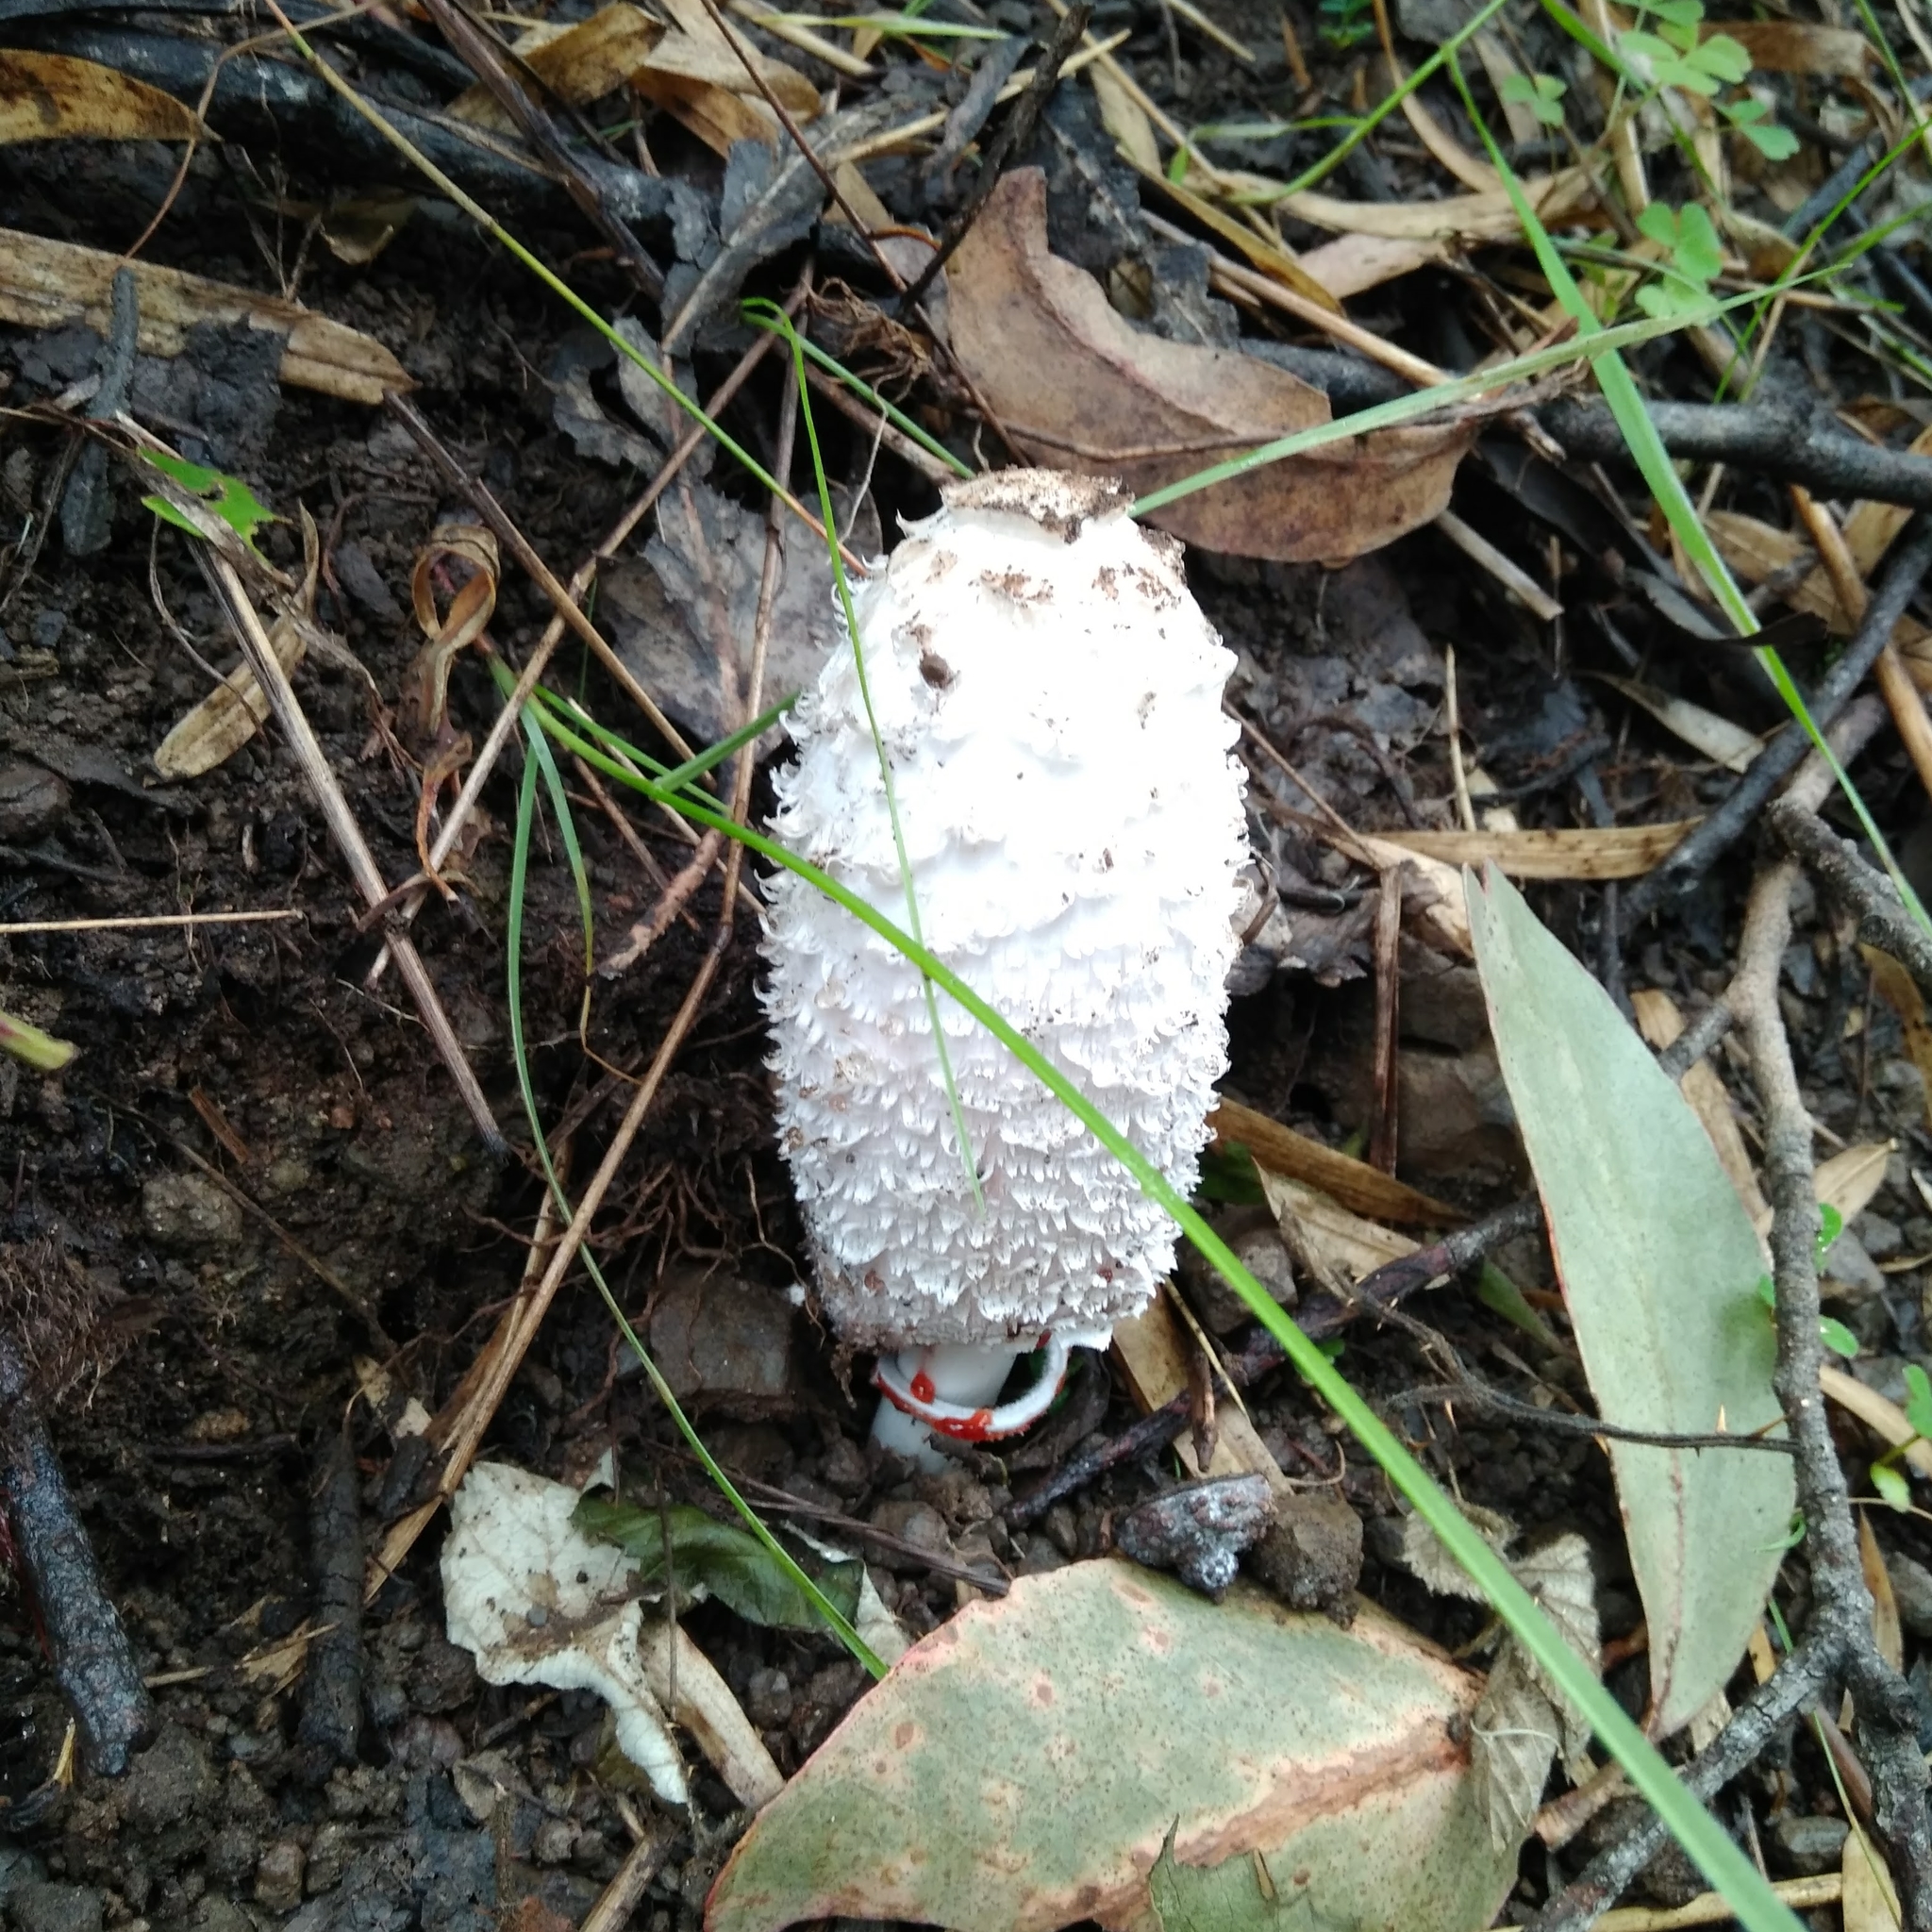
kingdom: Fungi
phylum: Basidiomycota
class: Agaricomycetes
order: Agaricales
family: Agaricaceae
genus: Coprinus
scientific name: Coprinus comatus
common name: Lawyer's wig
